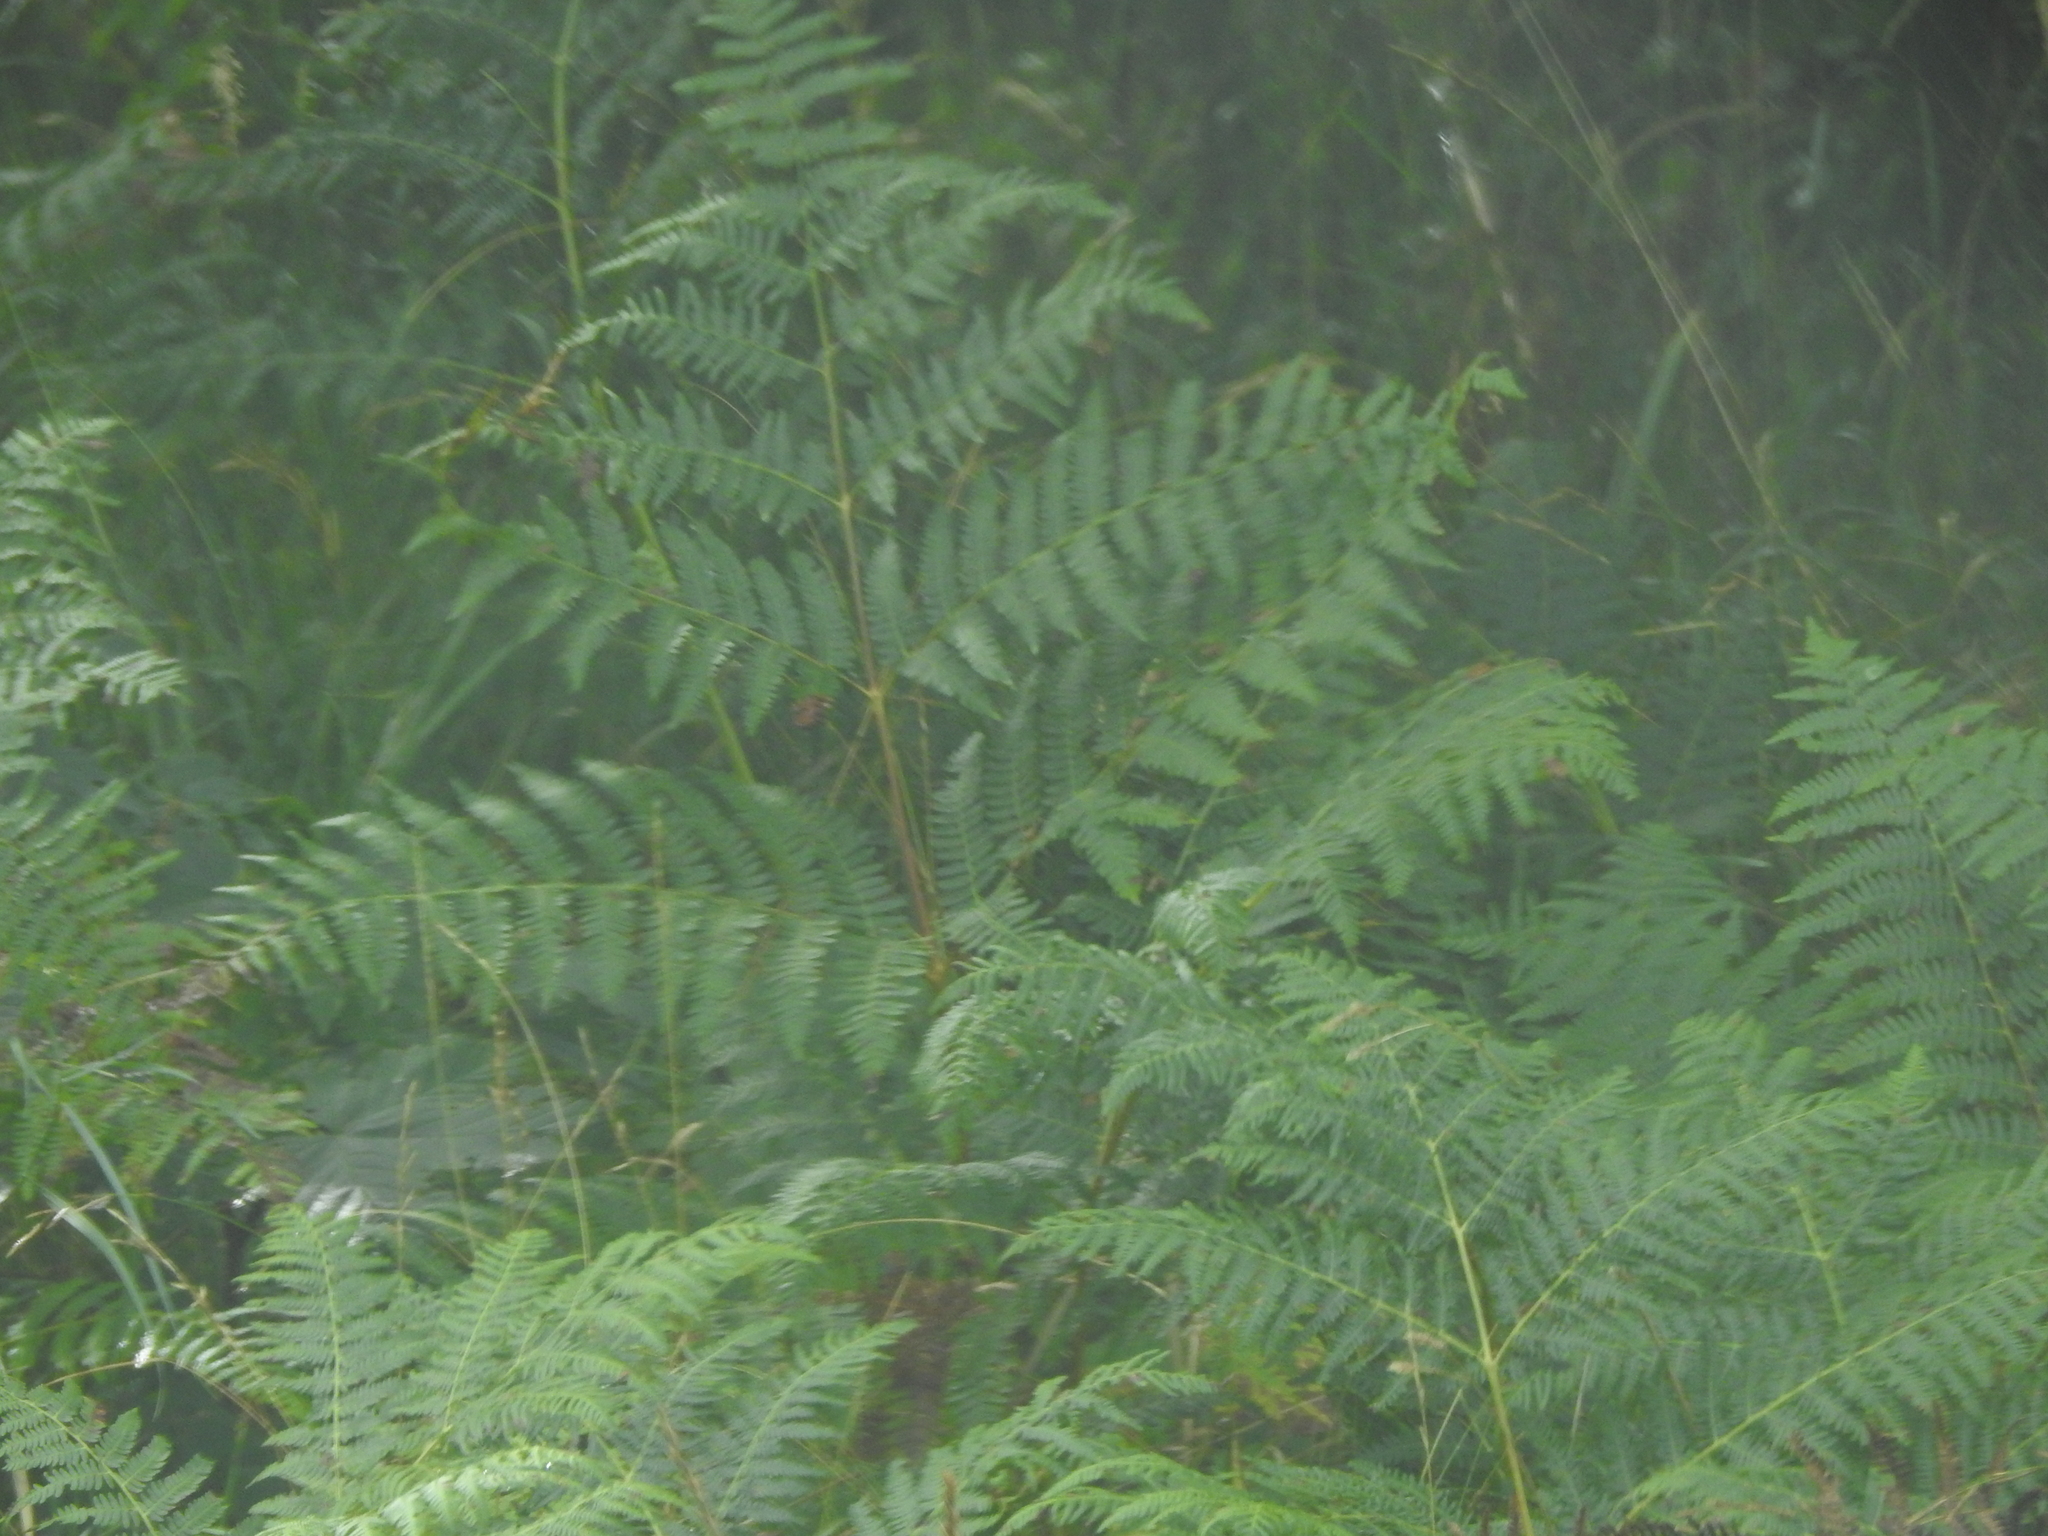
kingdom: Plantae
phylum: Tracheophyta
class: Polypodiopsida
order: Polypodiales
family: Dennstaedtiaceae
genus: Pteridium
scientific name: Pteridium aquilinum
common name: Bracken
